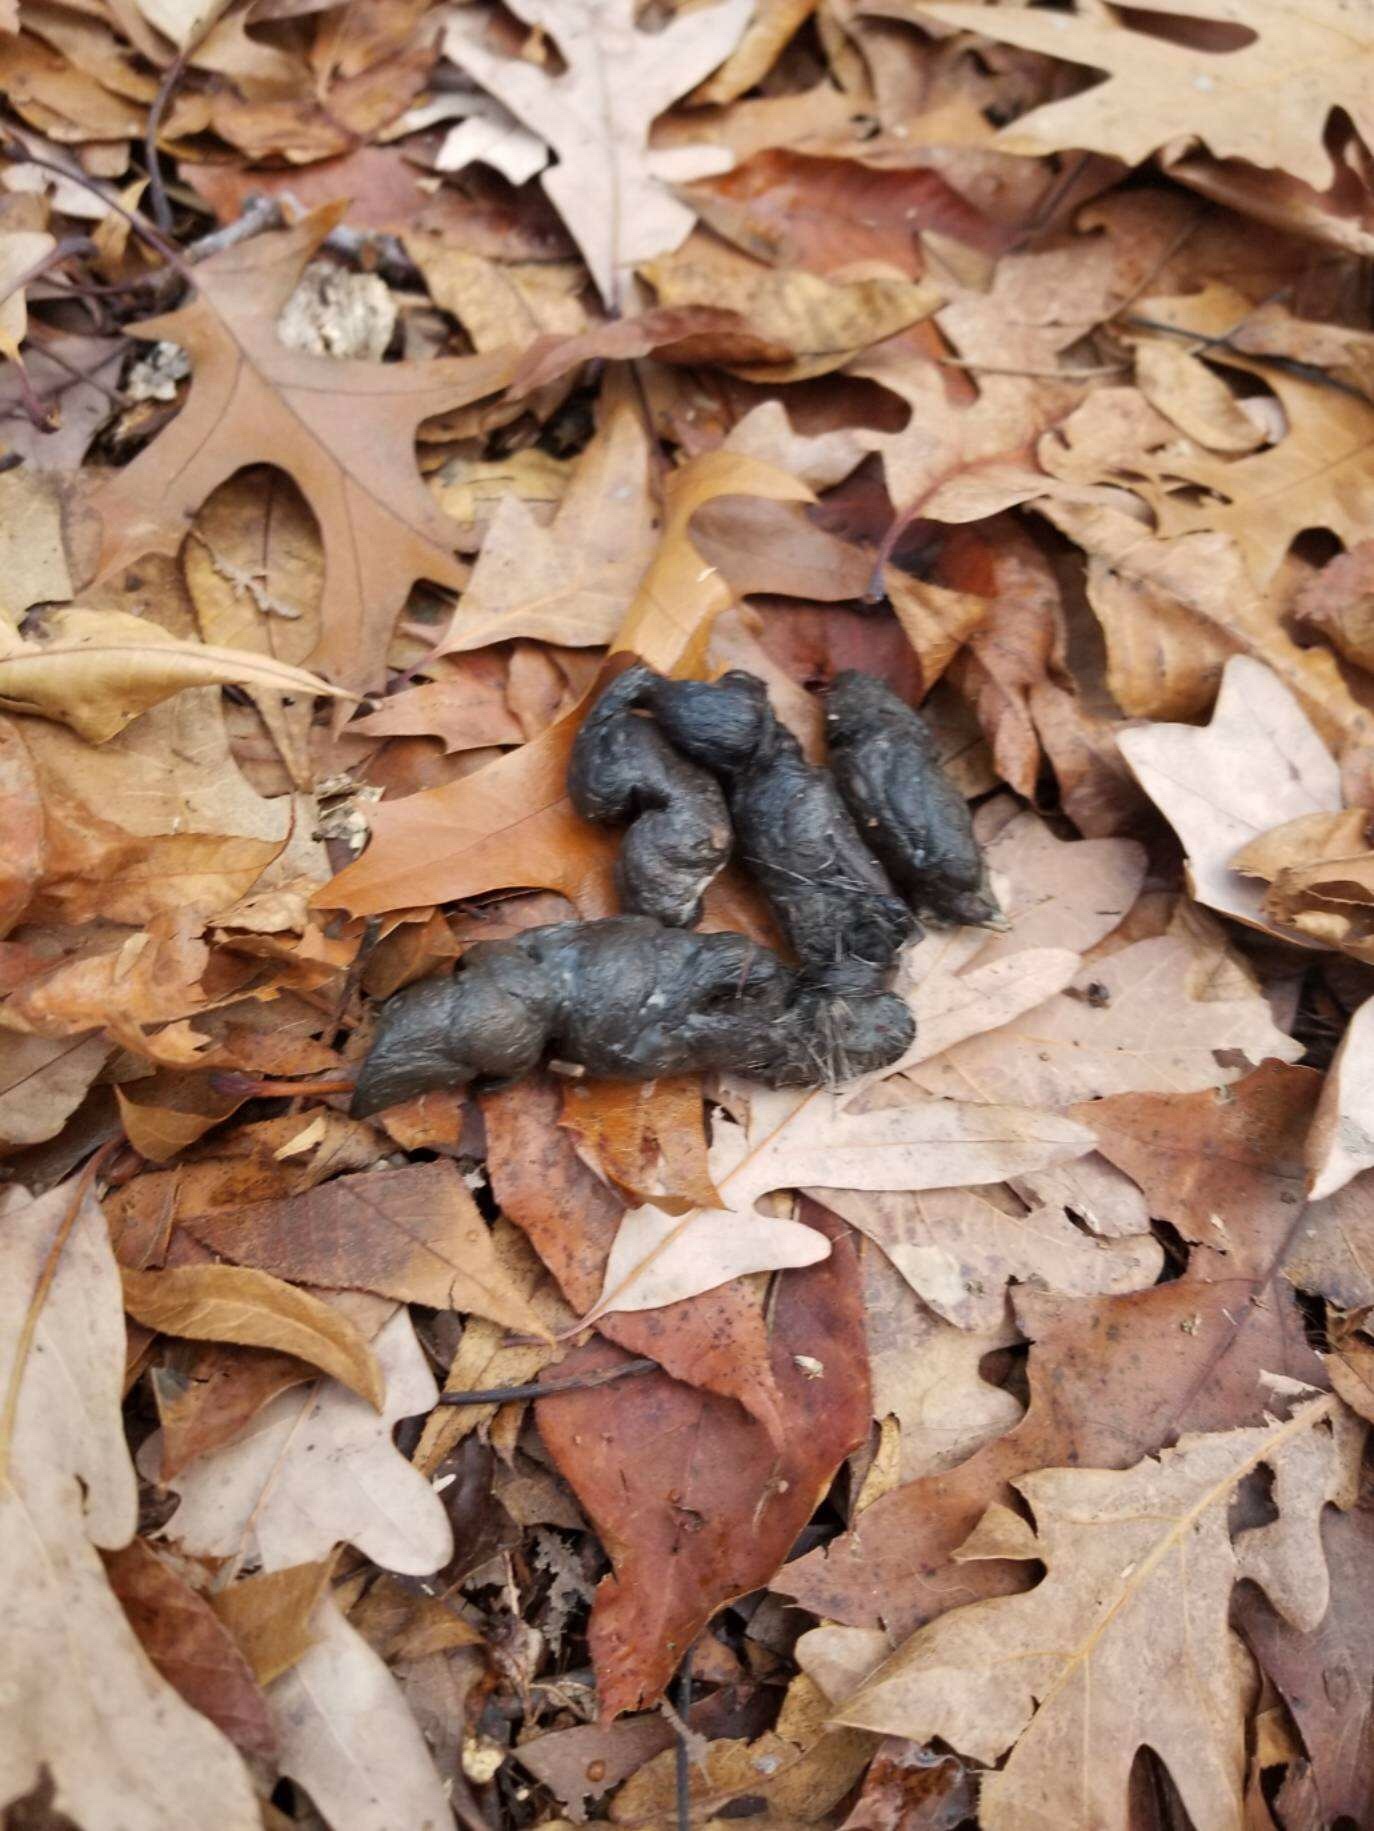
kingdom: Animalia
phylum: Chordata
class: Mammalia
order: Carnivora
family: Canidae
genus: Canis
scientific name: Canis latrans
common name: Coyote
